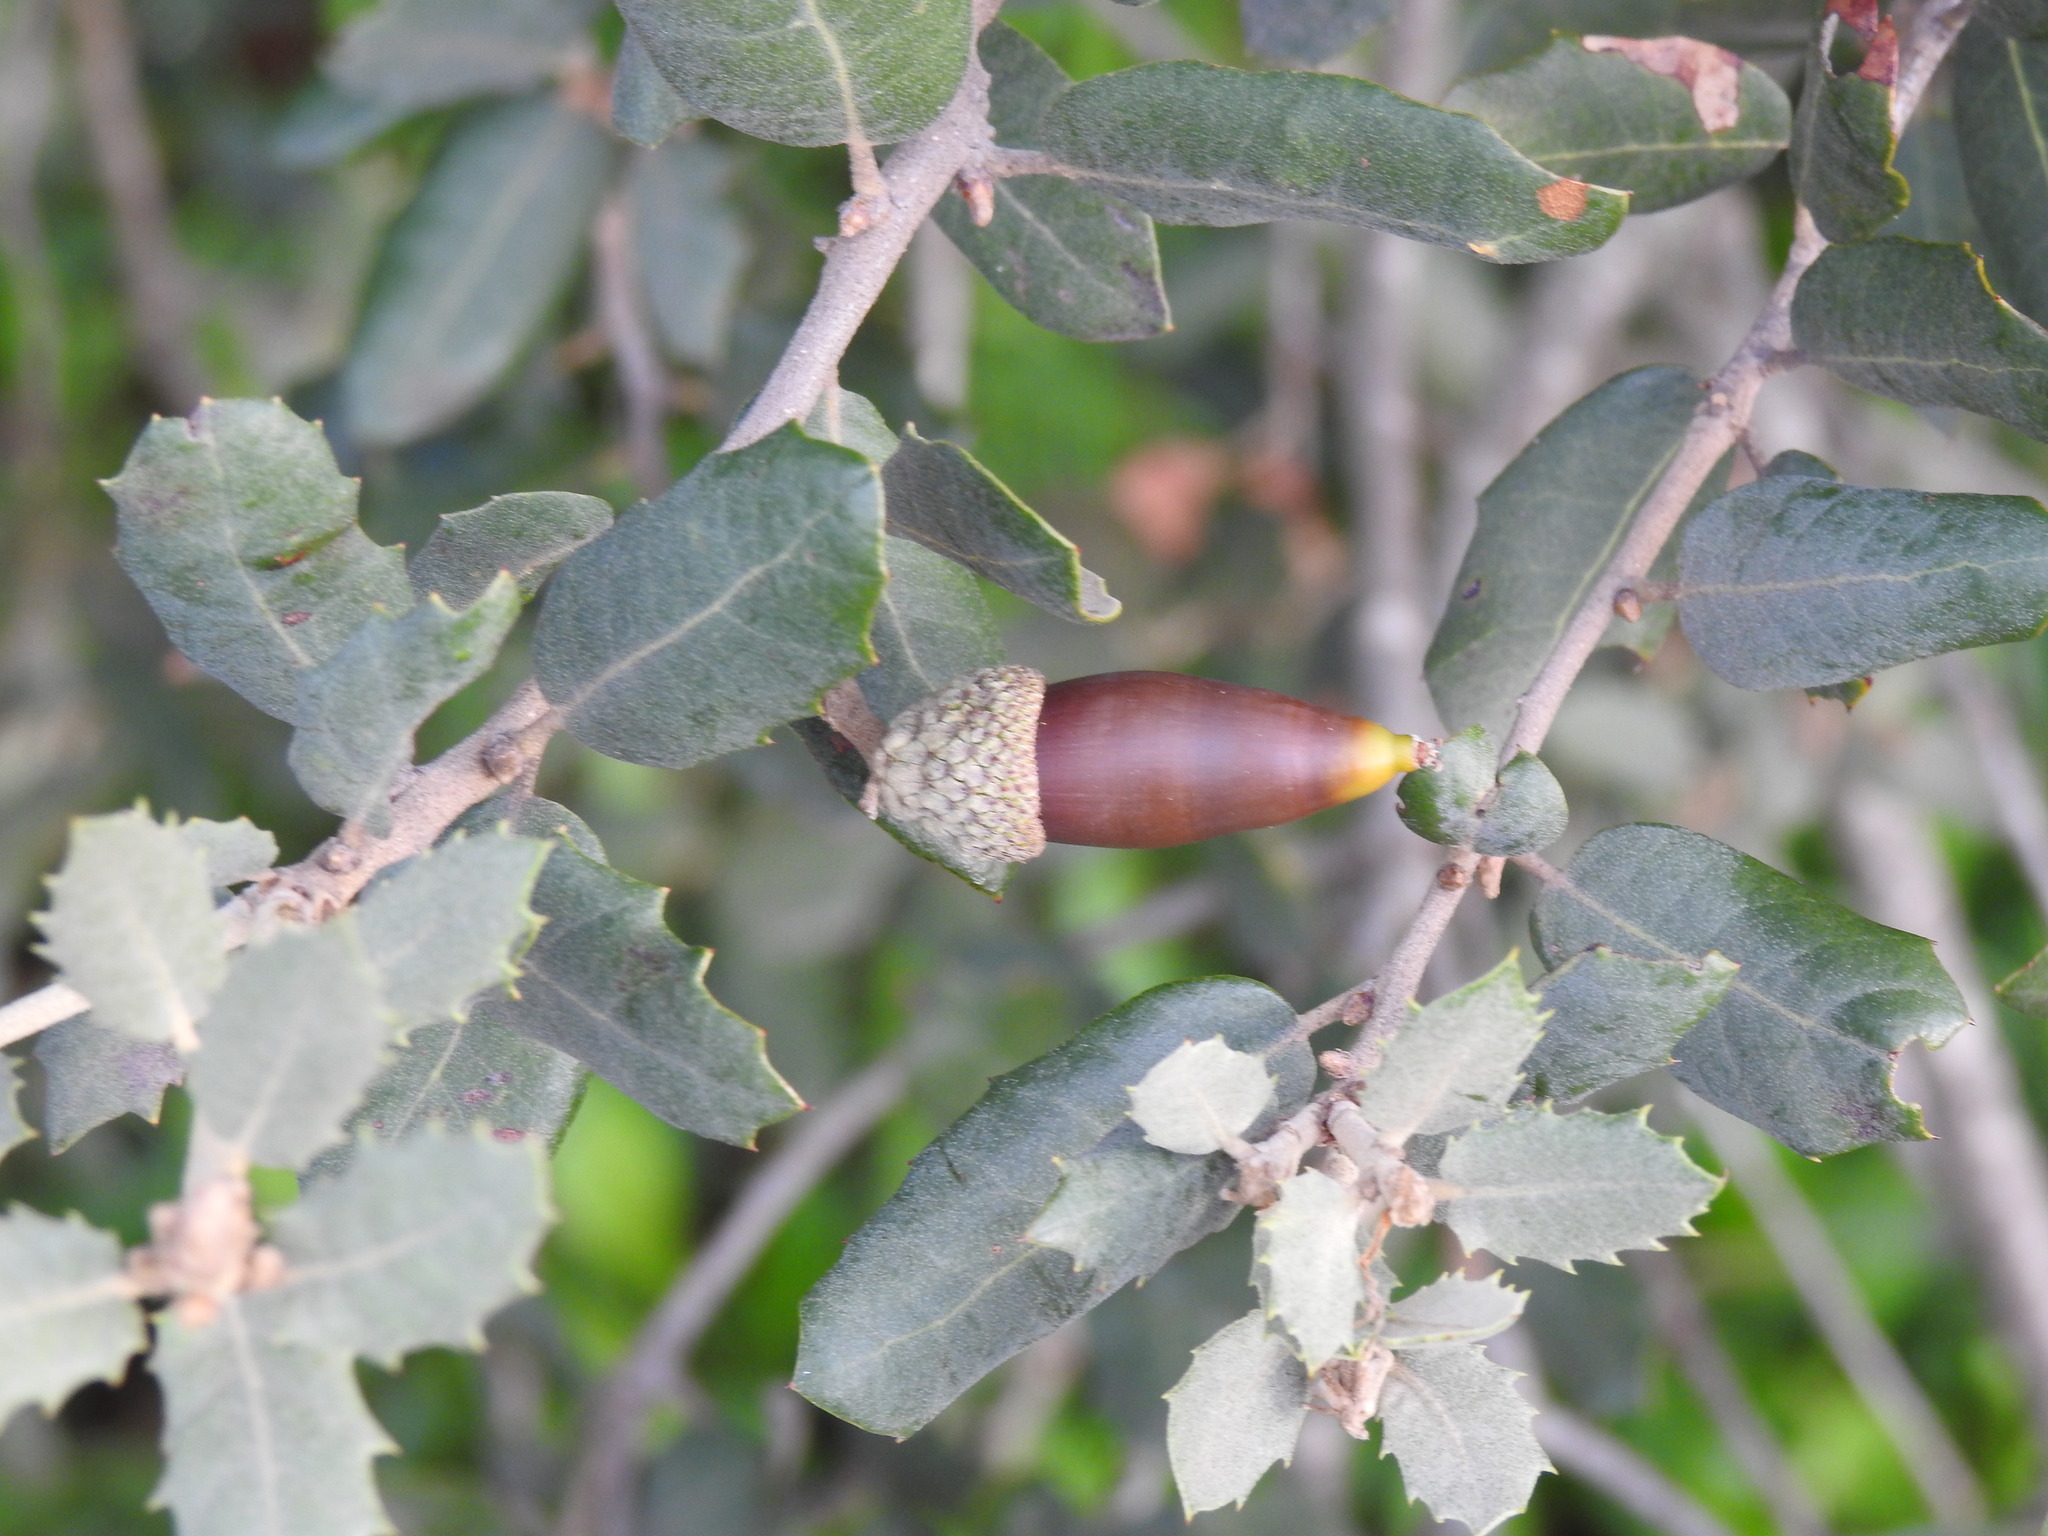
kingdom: Plantae
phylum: Tracheophyta
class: Magnoliopsida
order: Fagales
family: Fagaceae
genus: Quercus
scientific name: Quercus rotundifolia
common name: Holm oak
